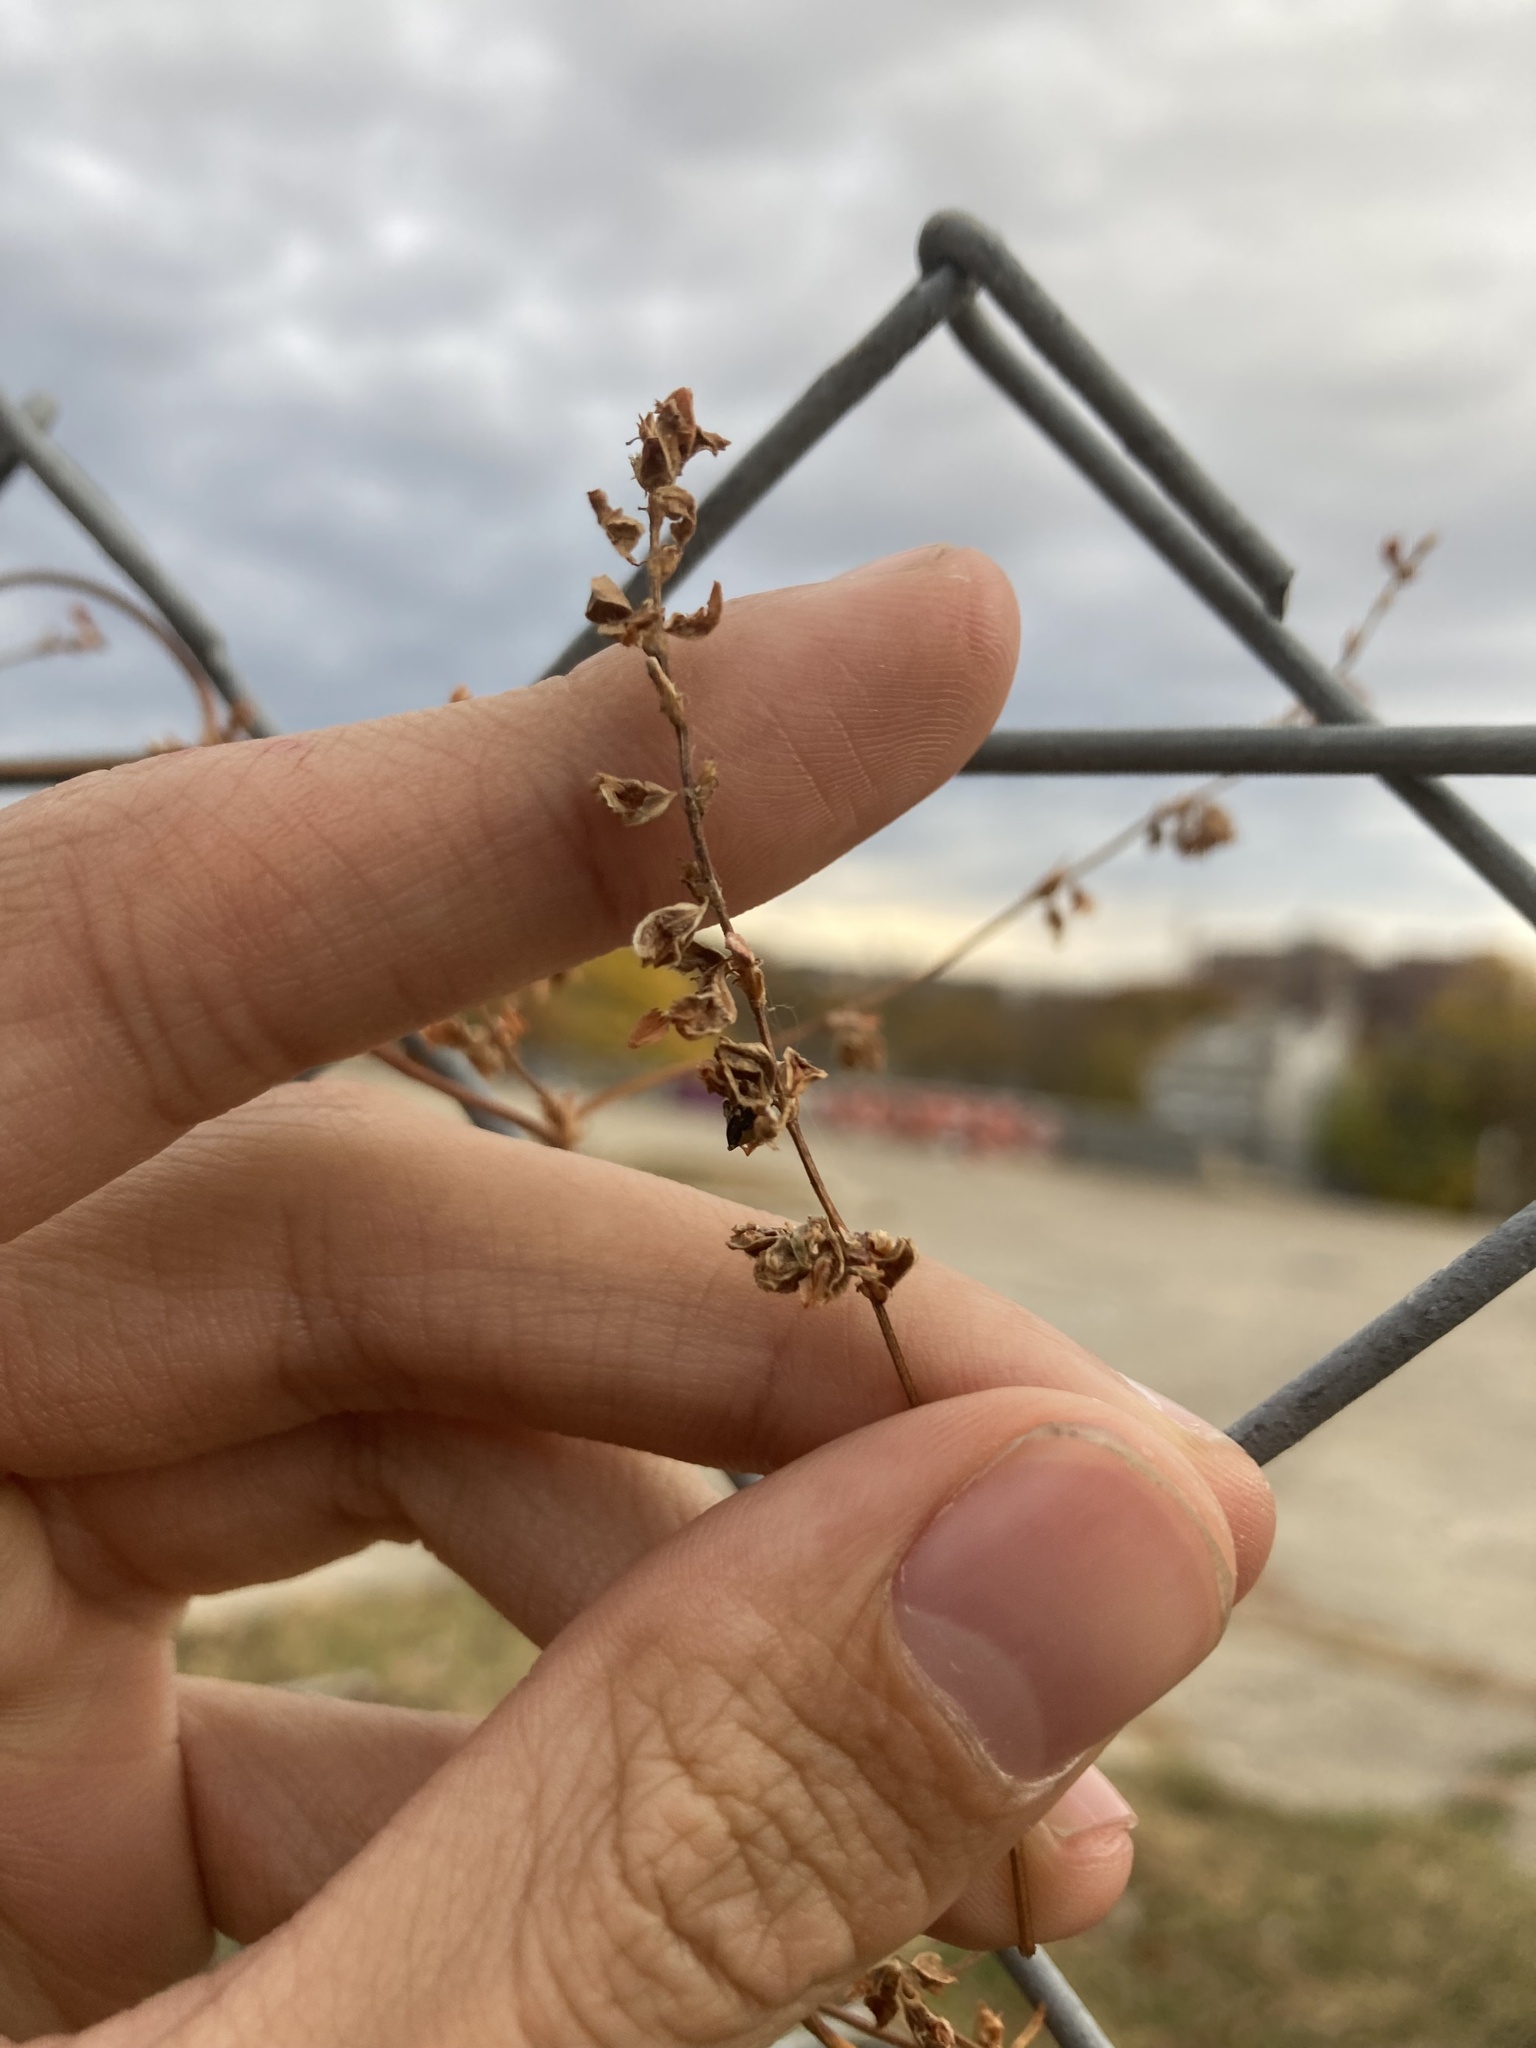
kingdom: Plantae
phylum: Tracheophyta
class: Magnoliopsida
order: Caryophyllales
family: Polygonaceae
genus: Fallopia
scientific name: Fallopia scandens
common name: Climbing false buckwheat
